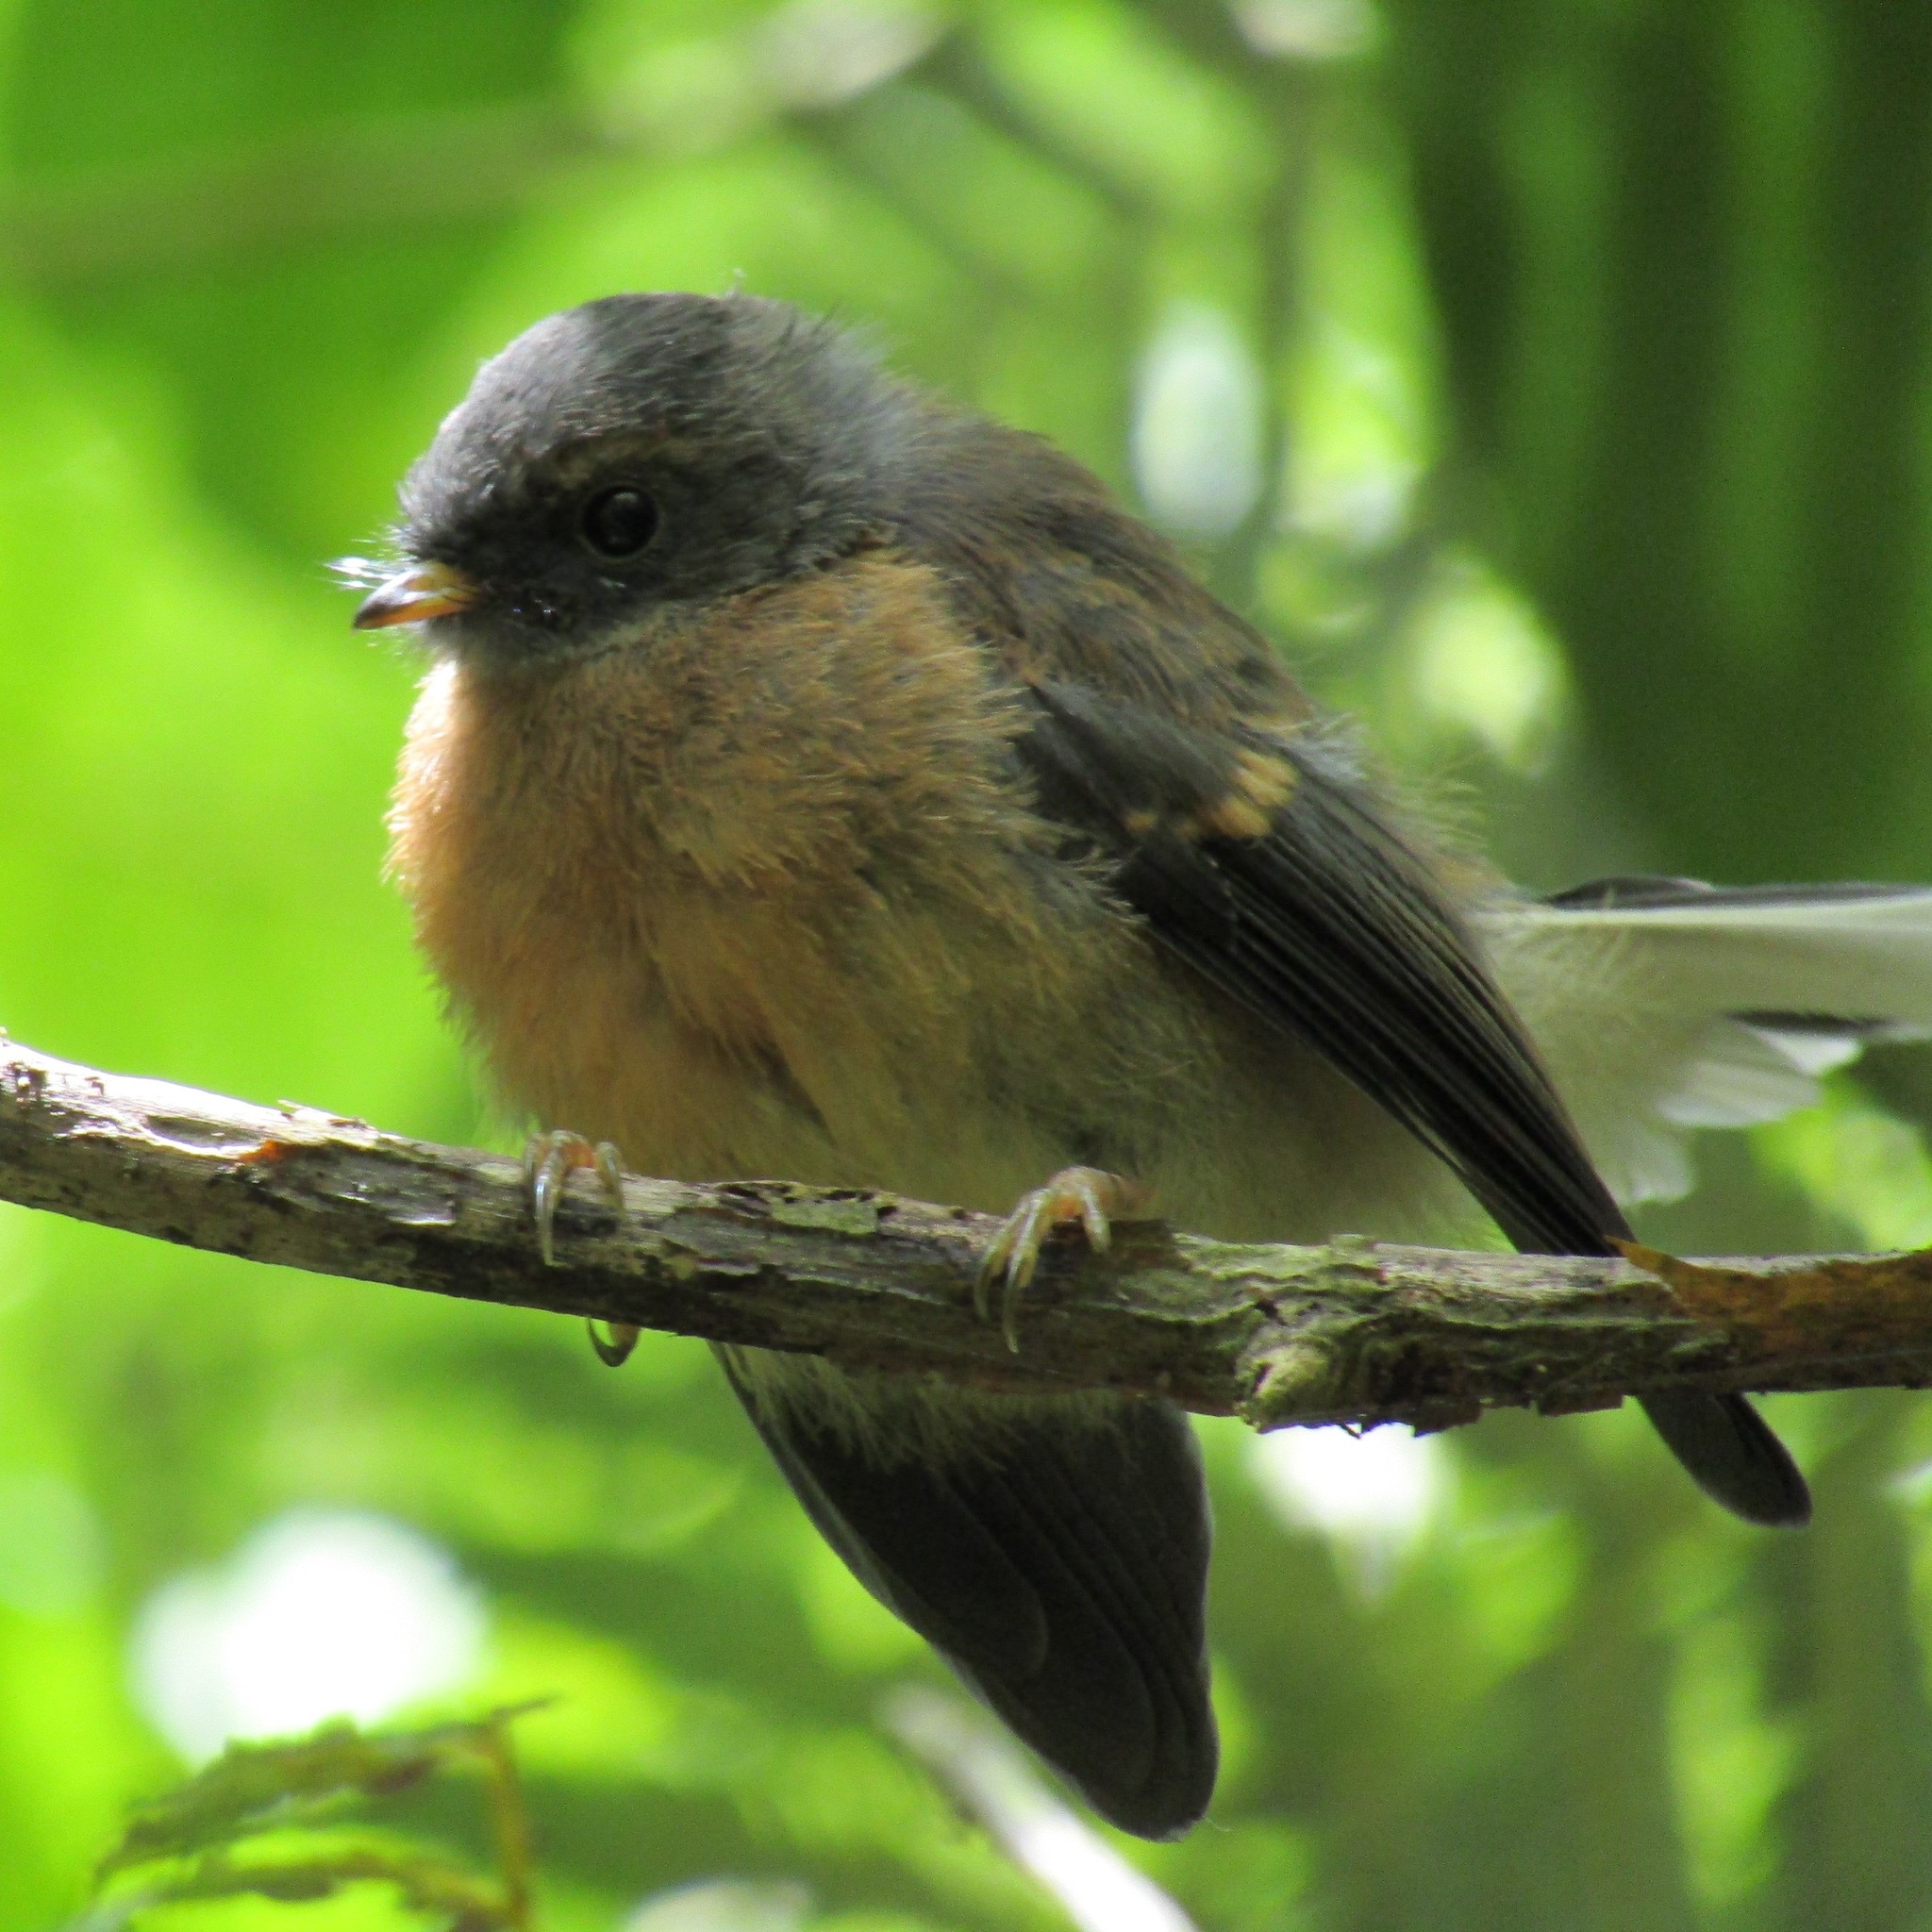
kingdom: Animalia
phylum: Chordata
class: Aves
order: Passeriformes
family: Rhipiduridae
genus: Rhipidura
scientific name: Rhipidura fuliginosa
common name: New zealand fantail
